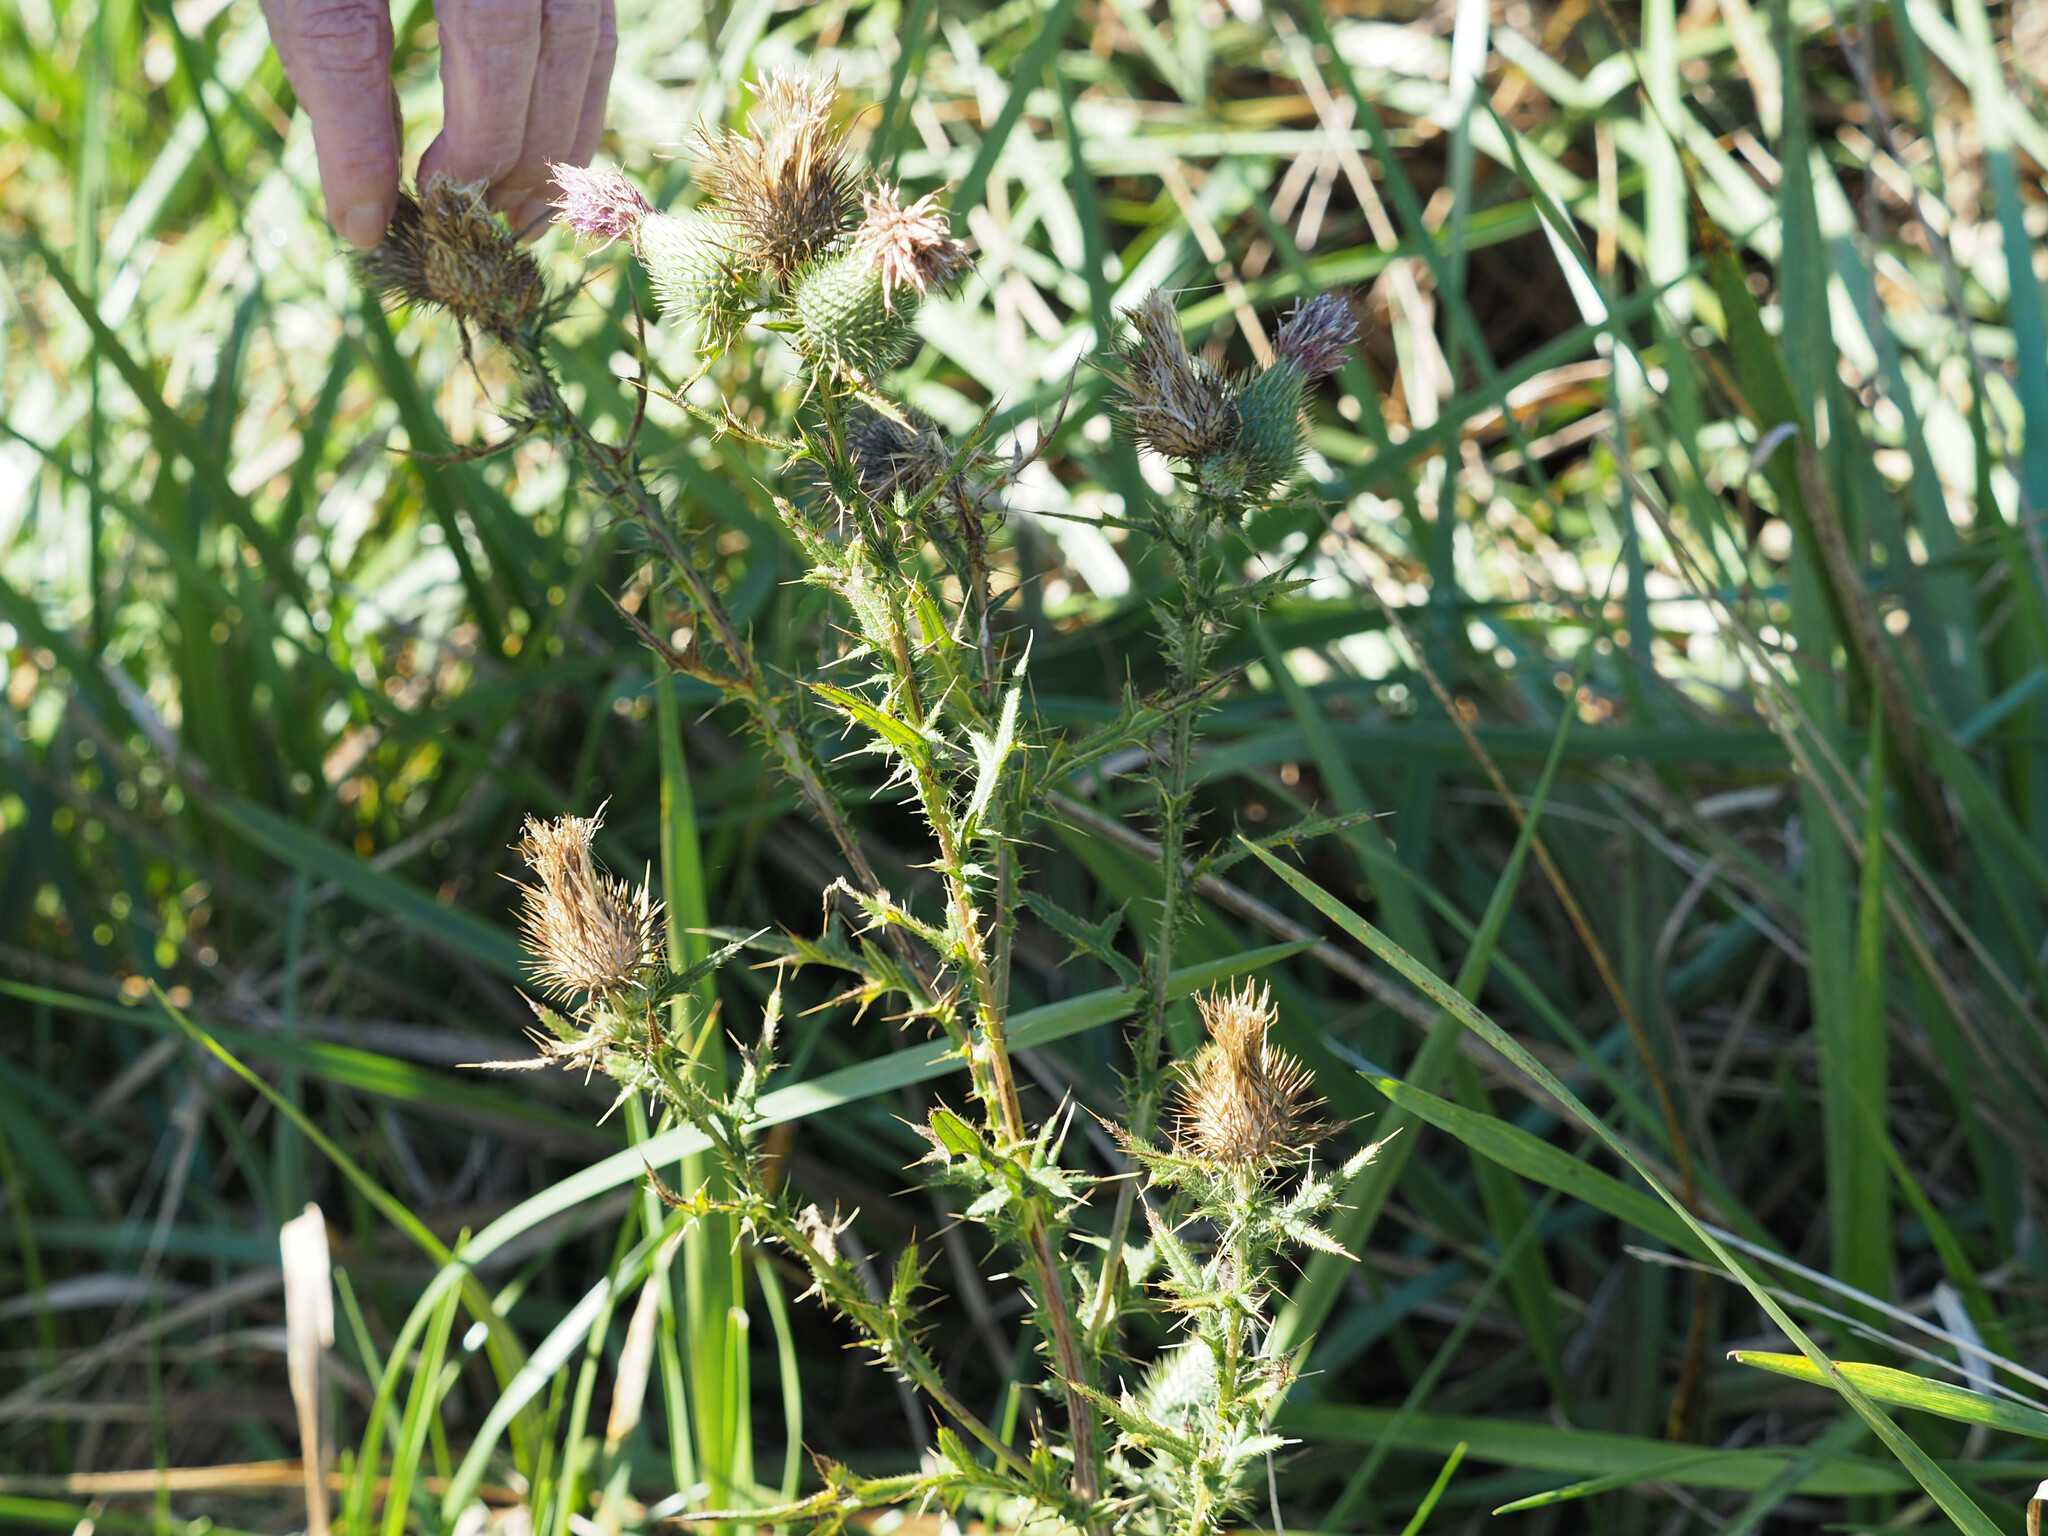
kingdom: Plantae
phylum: Tracheophyta
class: Magnoliopsida
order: Asterales
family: Asteraceae
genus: Cirsium
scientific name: Cirsium vulgare
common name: Bull thistle
